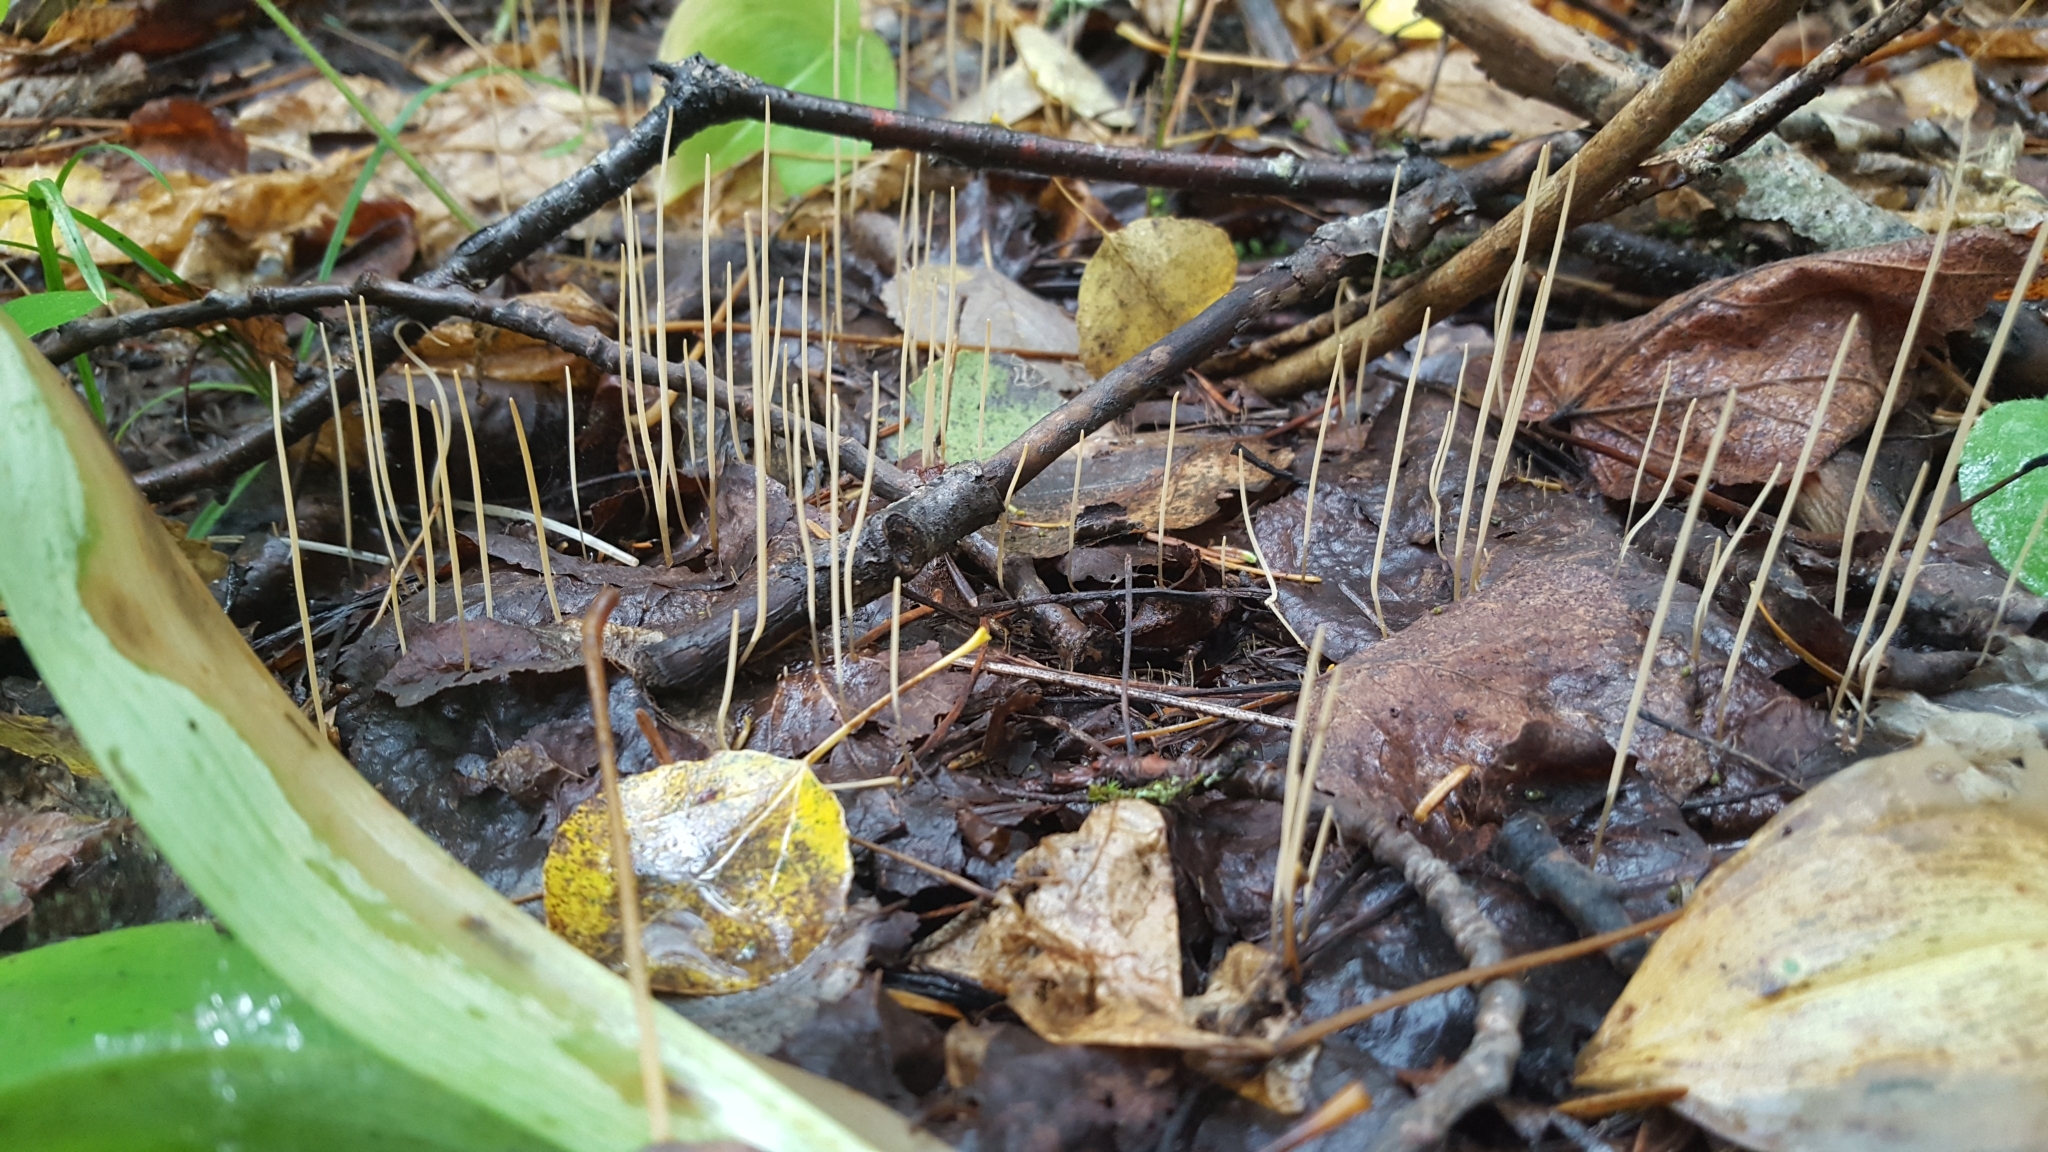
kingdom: Fungi
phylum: Basidiomycota
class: Agaricomycetes
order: Agaricales
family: Typhulaceae
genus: Typhula
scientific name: Typhula juncea
